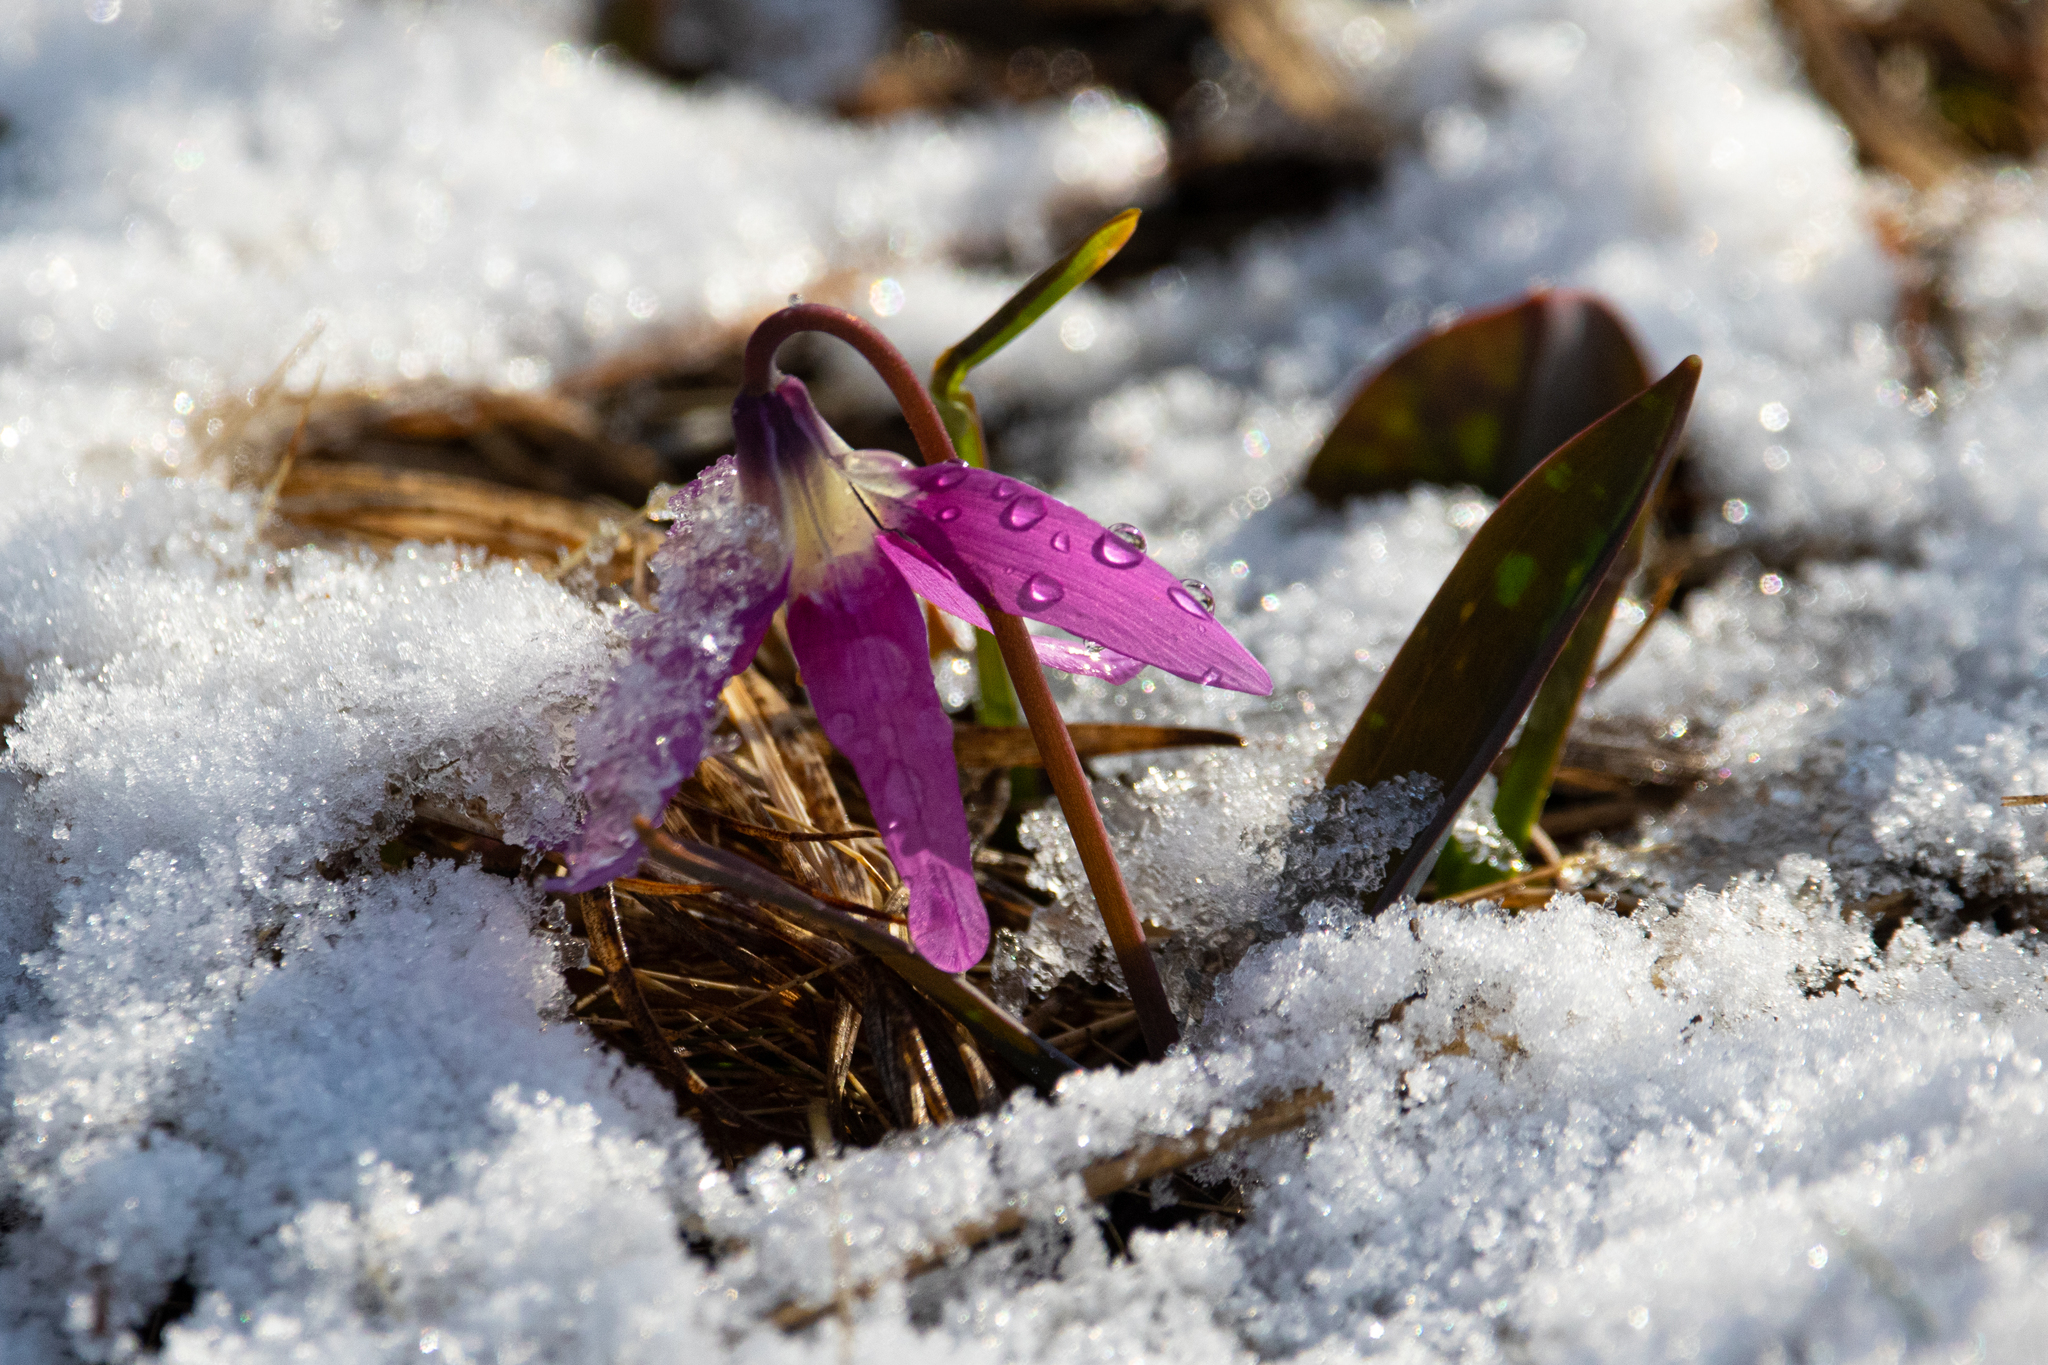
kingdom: Plantae
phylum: Tracheophyta
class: Liliopsida
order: Liliales
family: Liliaceae
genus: Erythronium
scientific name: Erythronium sibiricum
